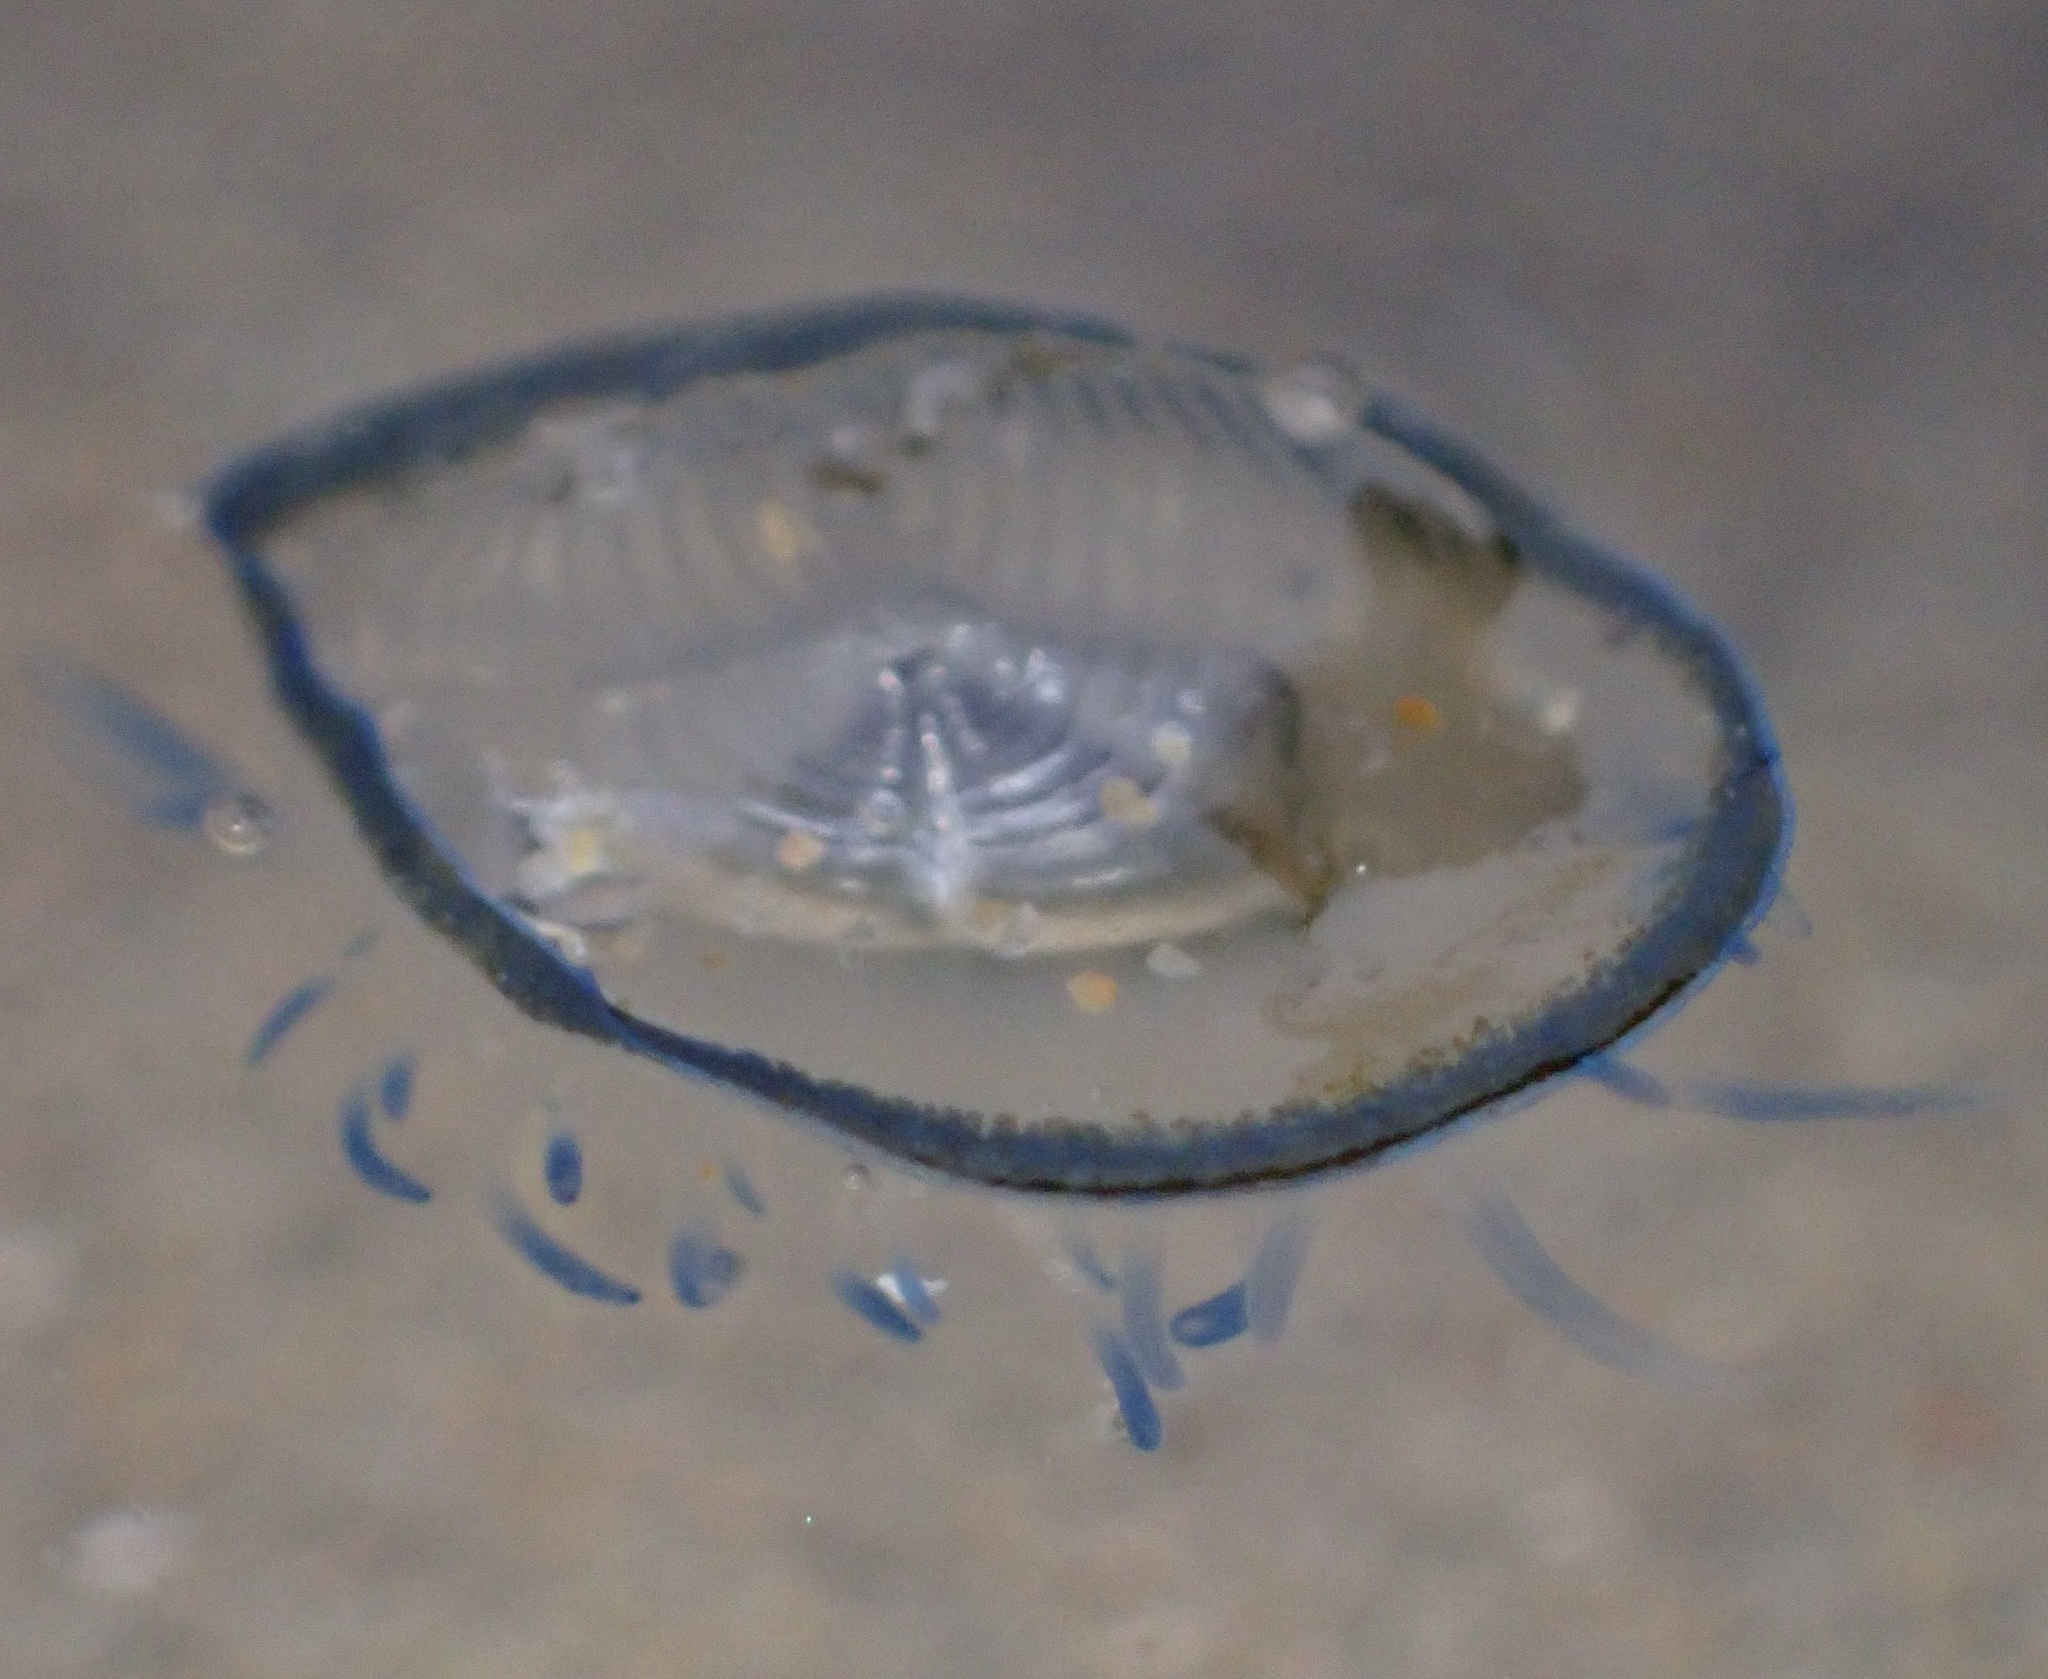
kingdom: Animalia
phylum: Cnidaria
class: Hydrozoa
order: Anthoathecata
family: Porpitidae
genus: Velella
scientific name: Velella velella
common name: By-the-wind-sailor
